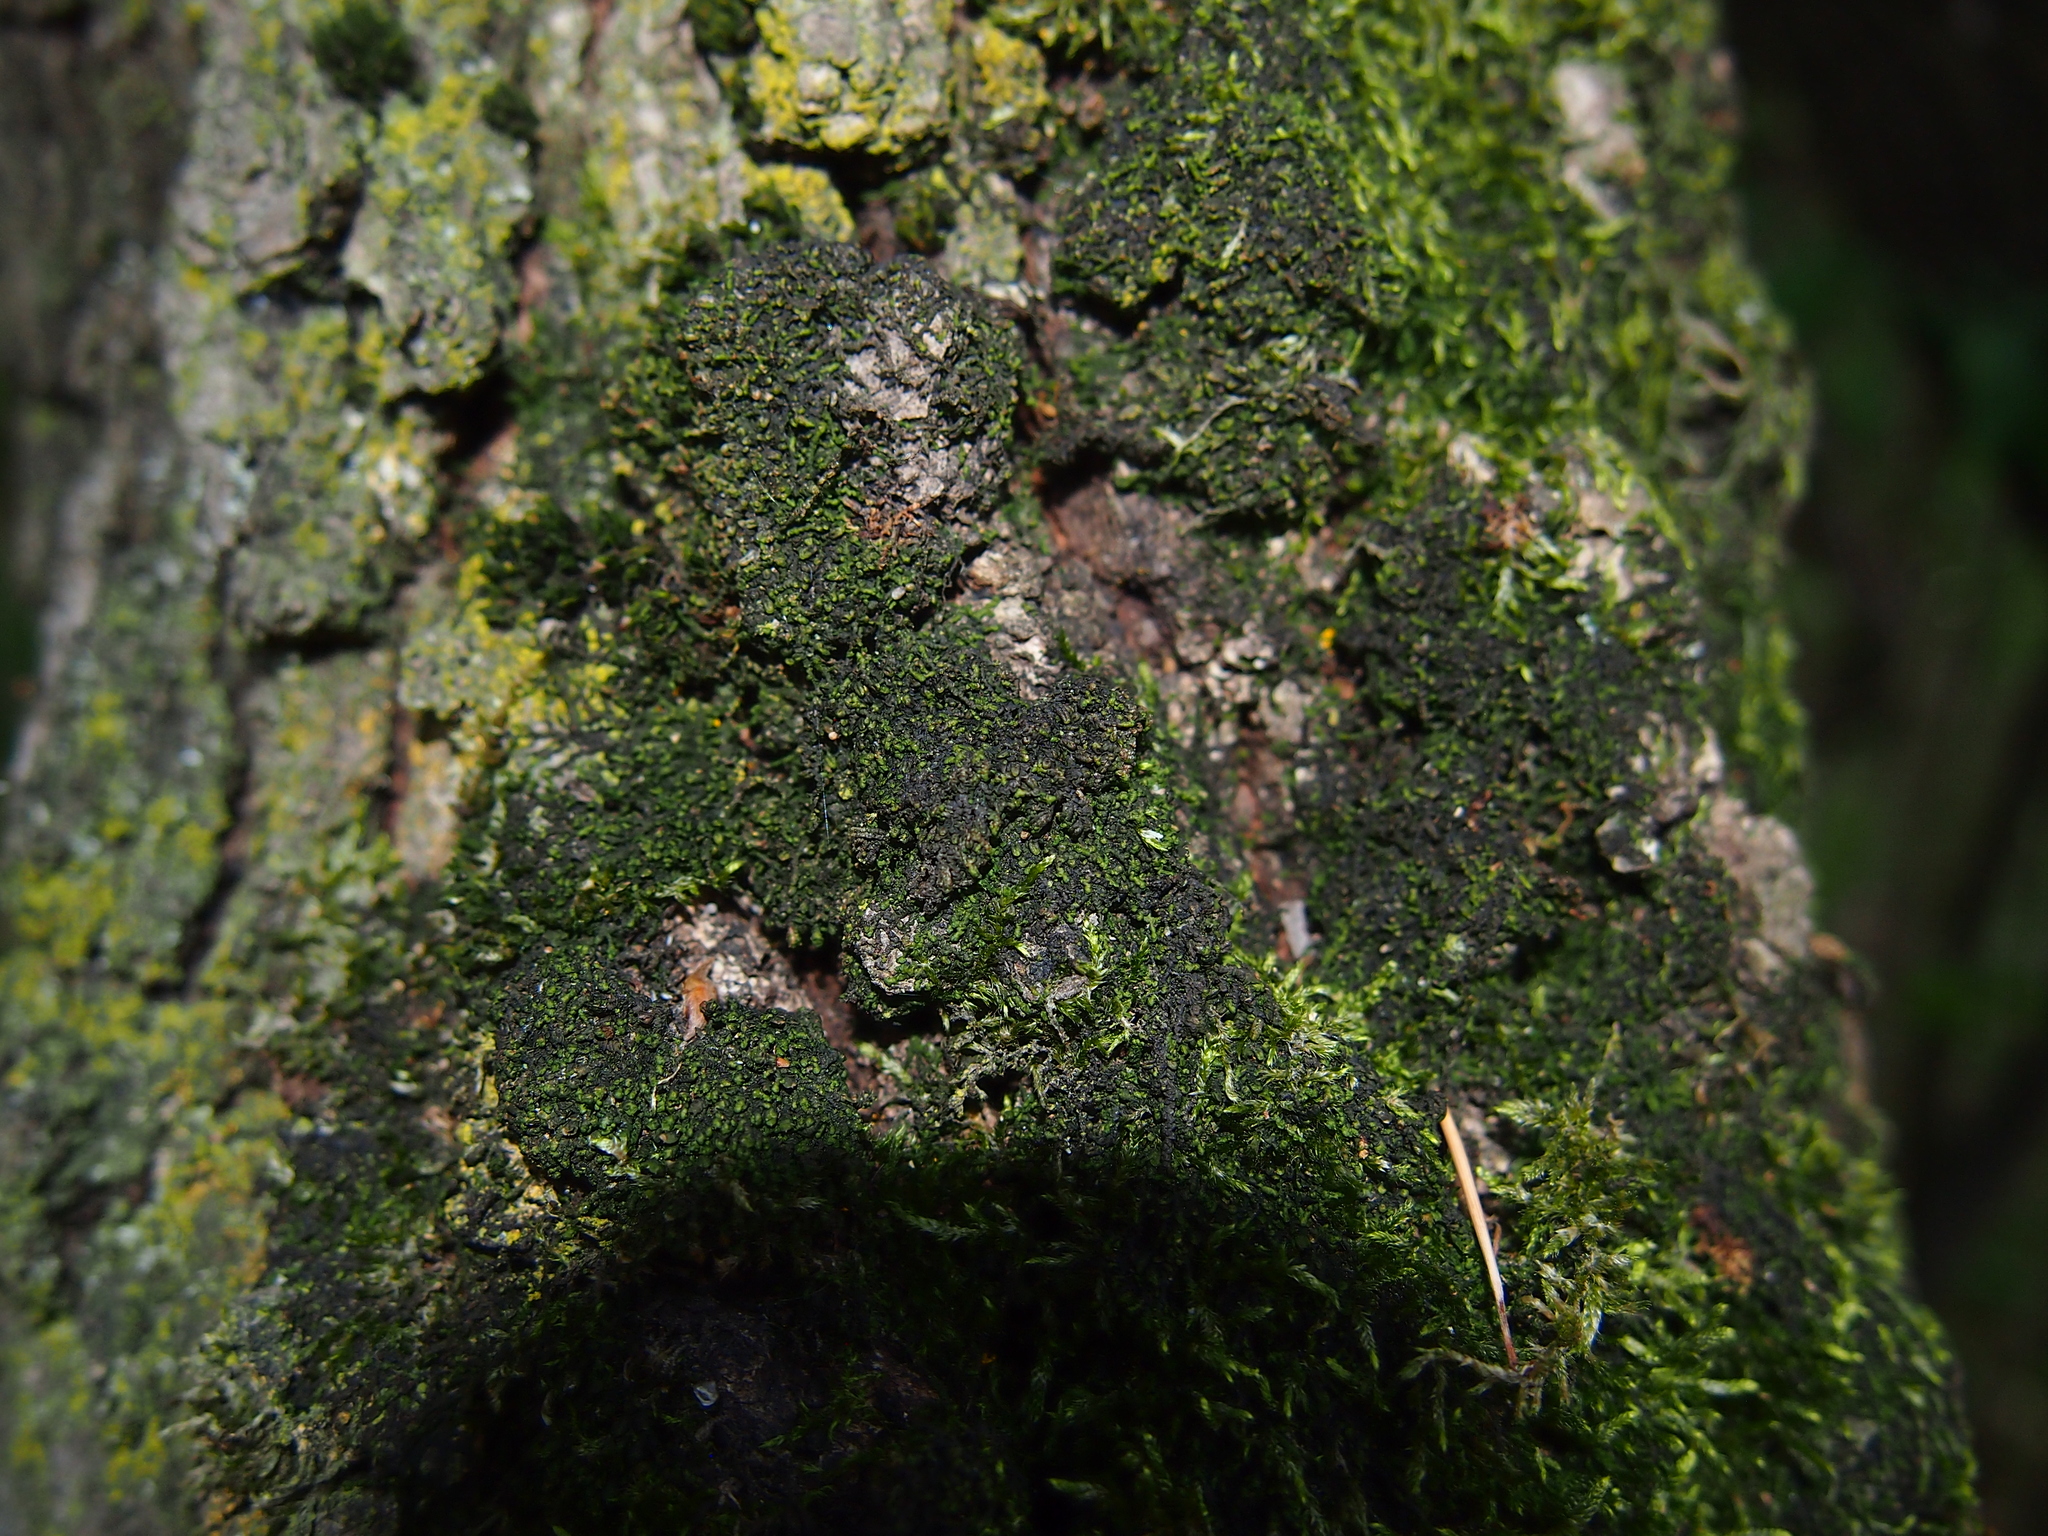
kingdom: Plantae
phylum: Marchantiophyta
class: Jungermanniopsida
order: Porellales
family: Frullaniaceae
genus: Frullania
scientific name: Frullania dilatata
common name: Dilated scalewort
